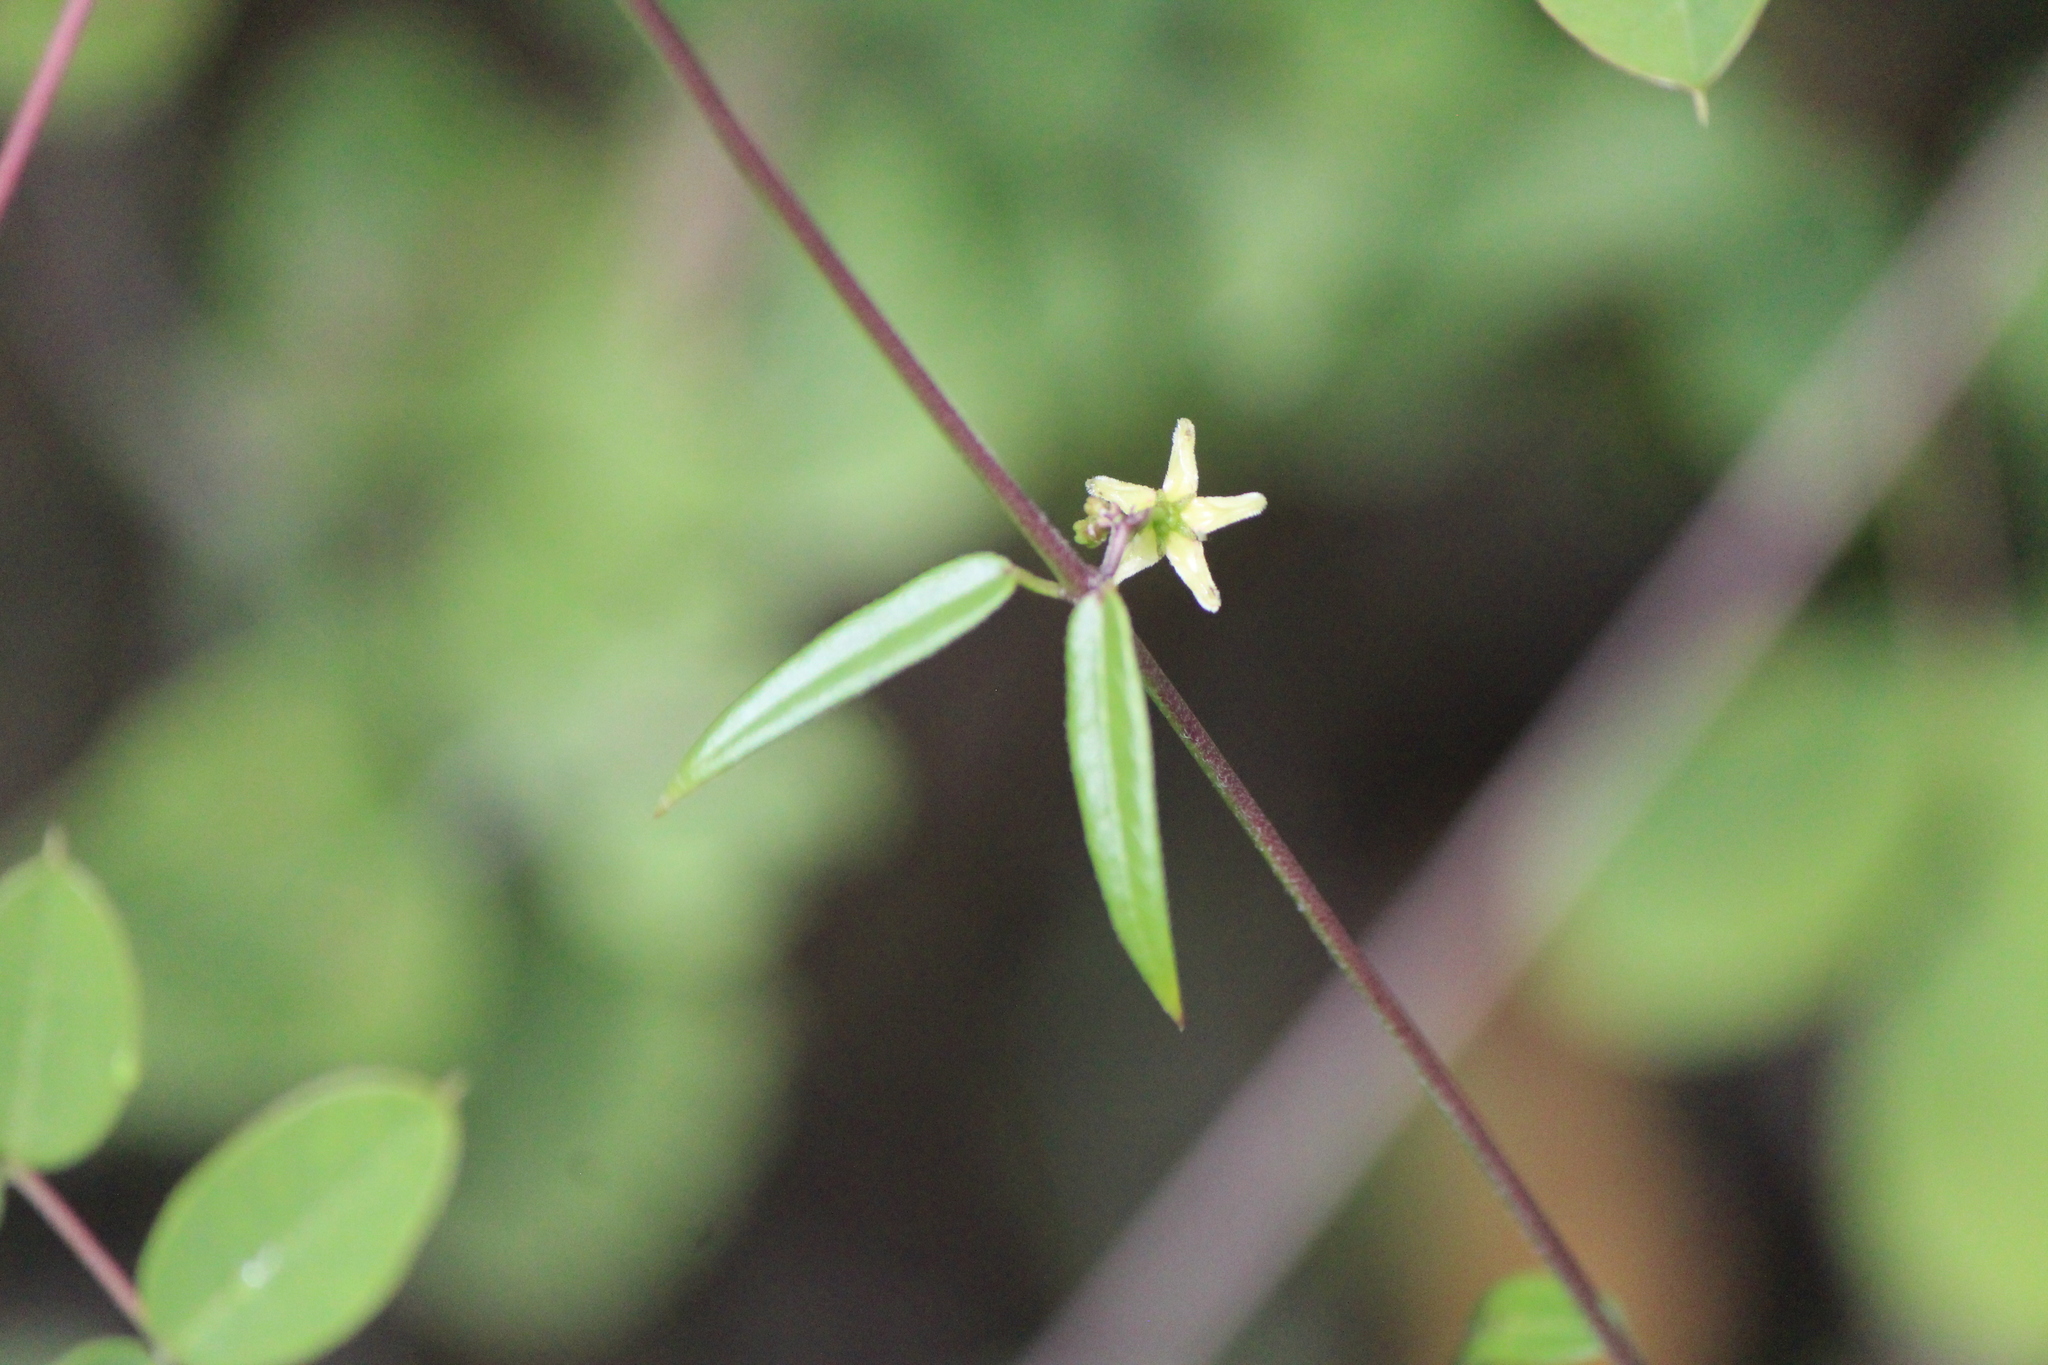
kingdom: Plantae
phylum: Tracheophyta
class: Magnoliopsida
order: Gentianales
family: Apocynaceae
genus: Metastelma
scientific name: Metastelma palmeri
